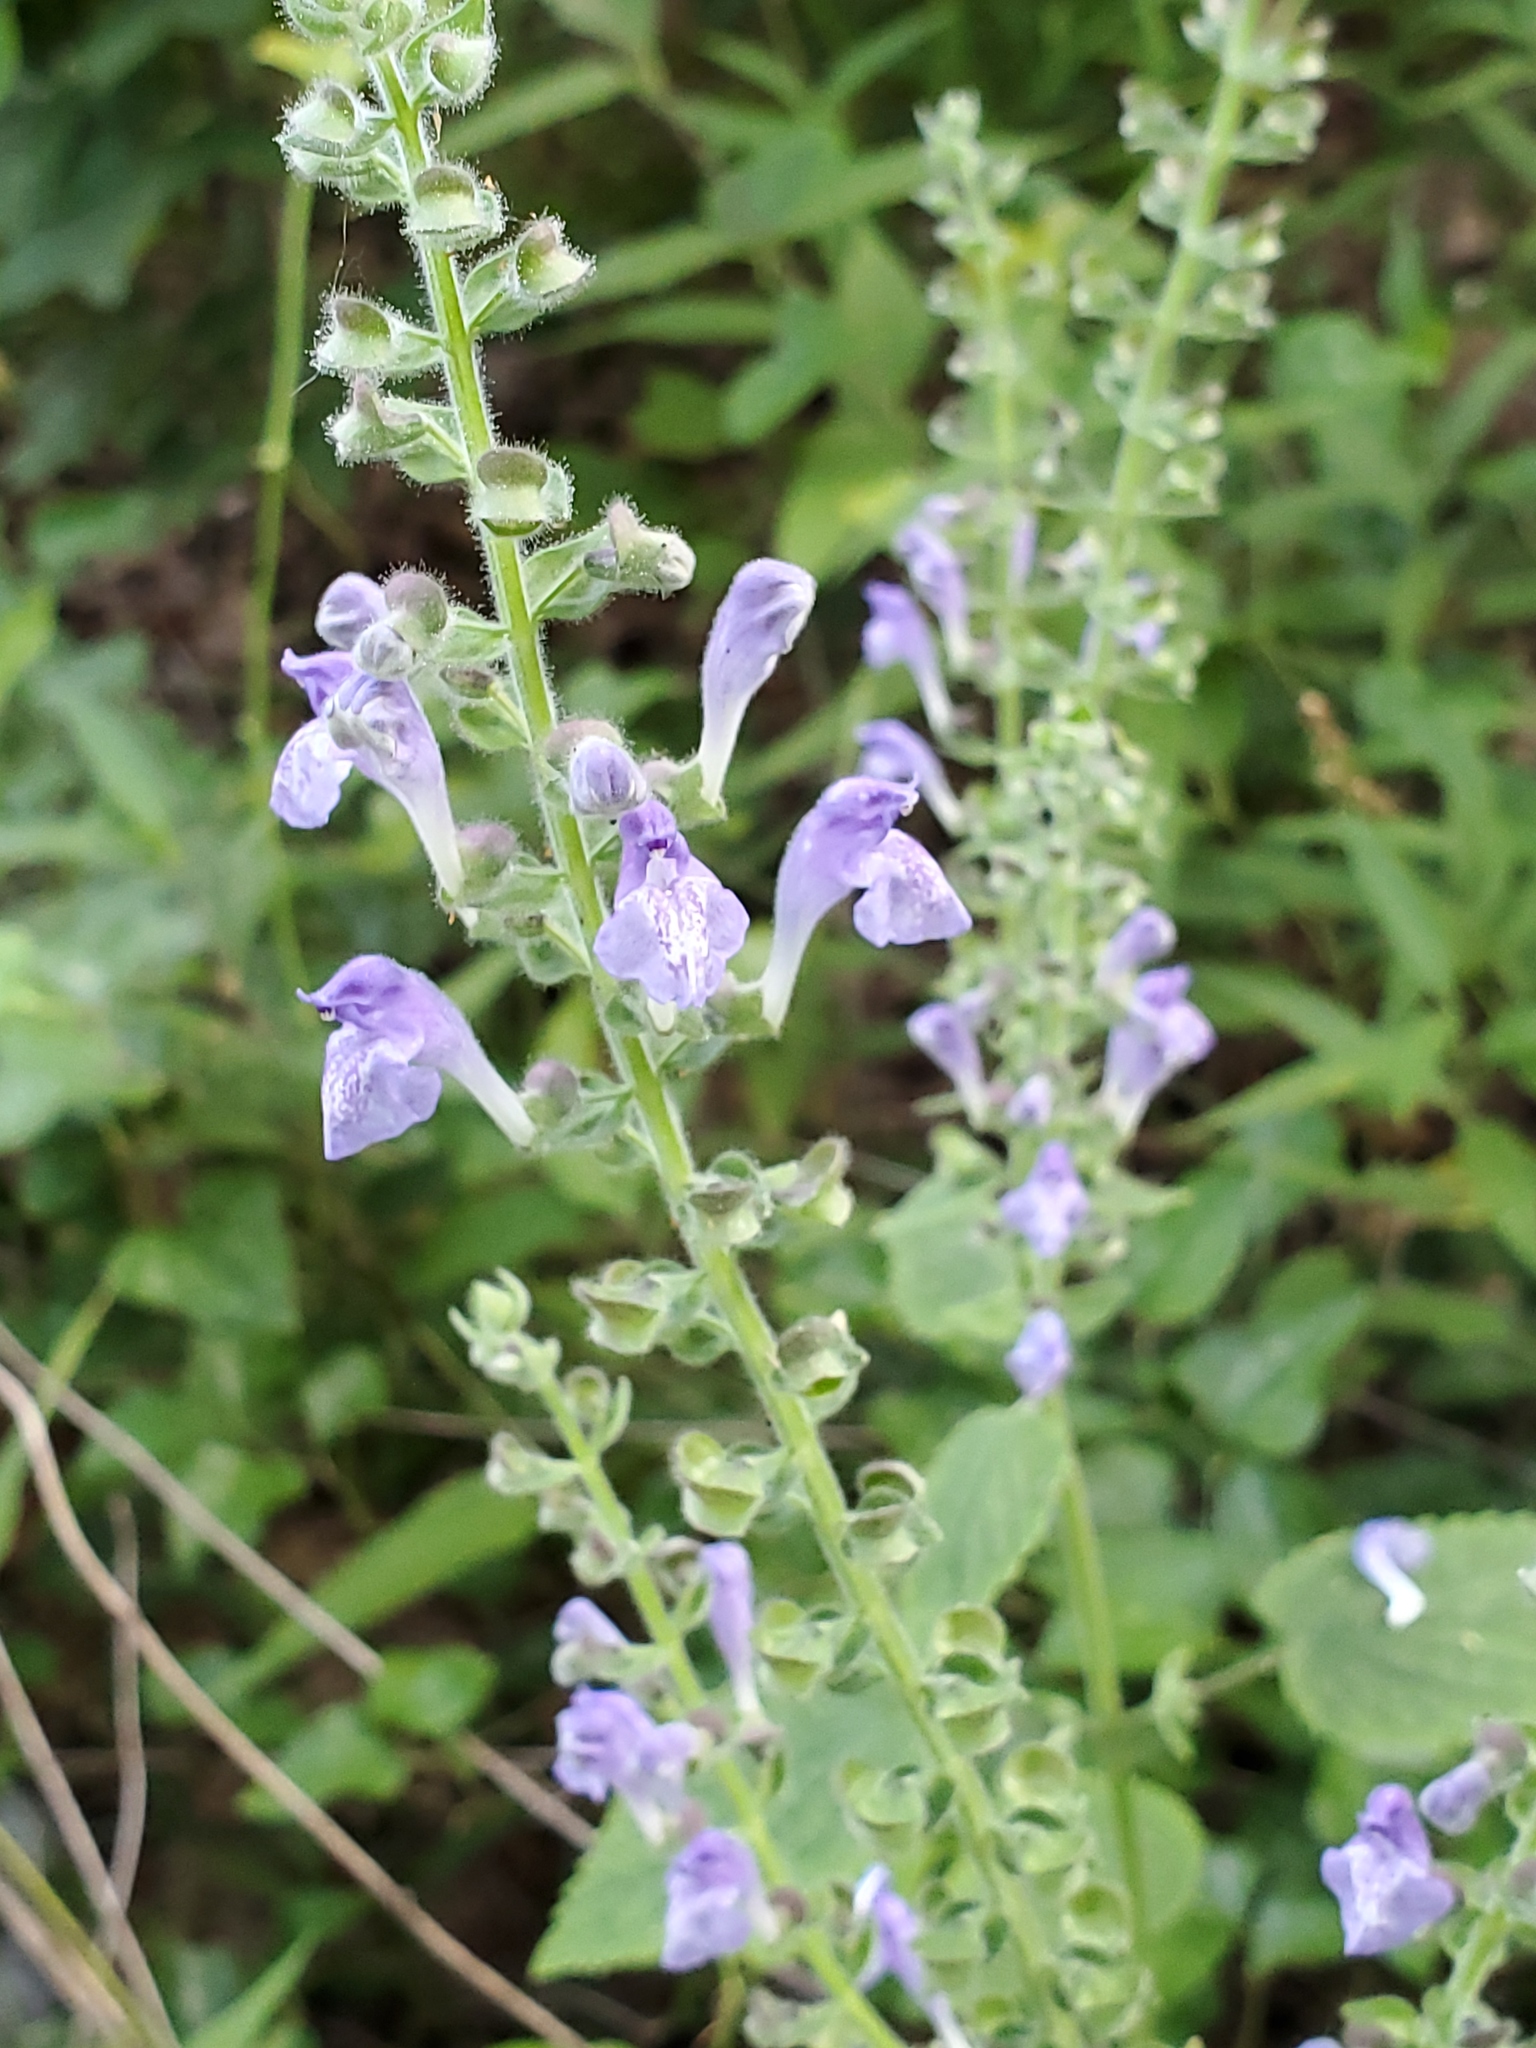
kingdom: Plantae
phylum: Tracheophyta
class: Magnoliopsida
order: Lamiales
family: Lamiaceae
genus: Scutellaria
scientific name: Scutellaria ovata
